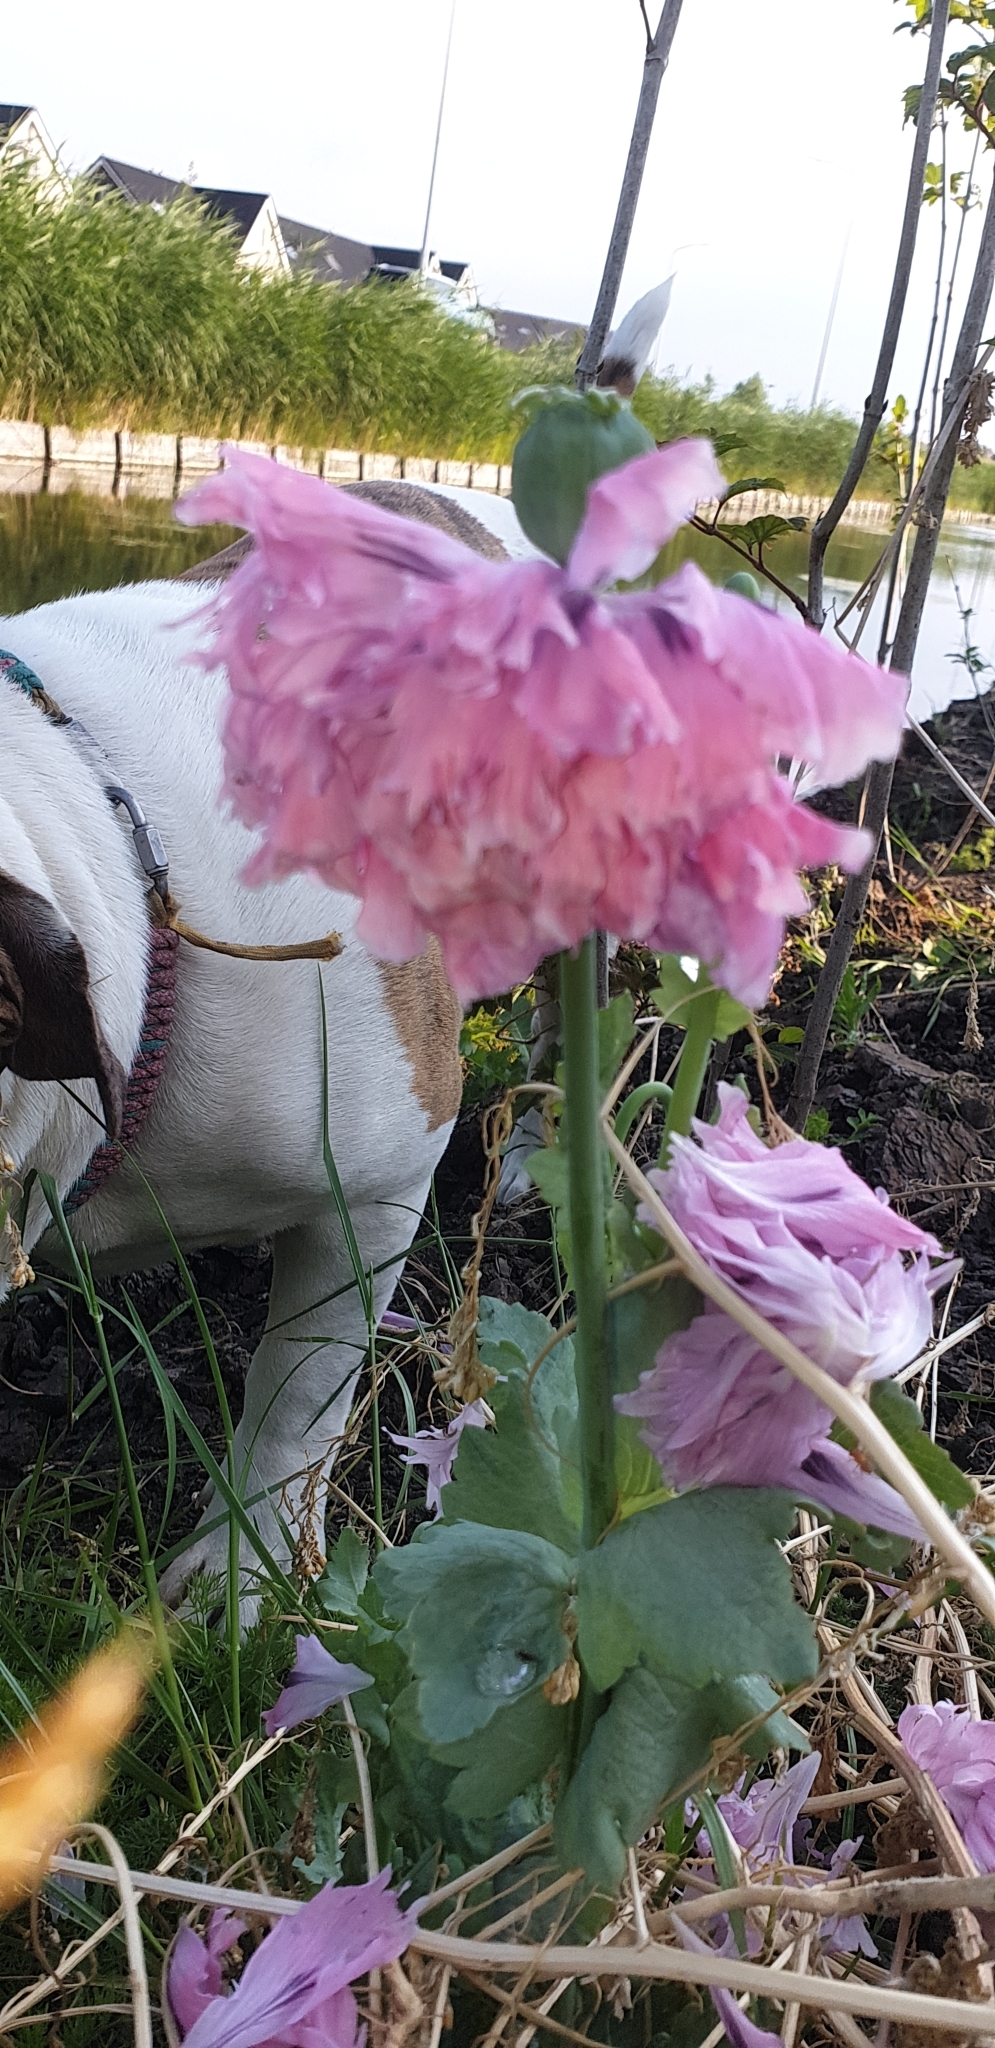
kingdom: Plantae
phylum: Tracheophyta
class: Magnoliopsida
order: Ranunculales
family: Papaveraceae
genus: Papaver
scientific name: Papaver somniferum
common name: Opium poppy
